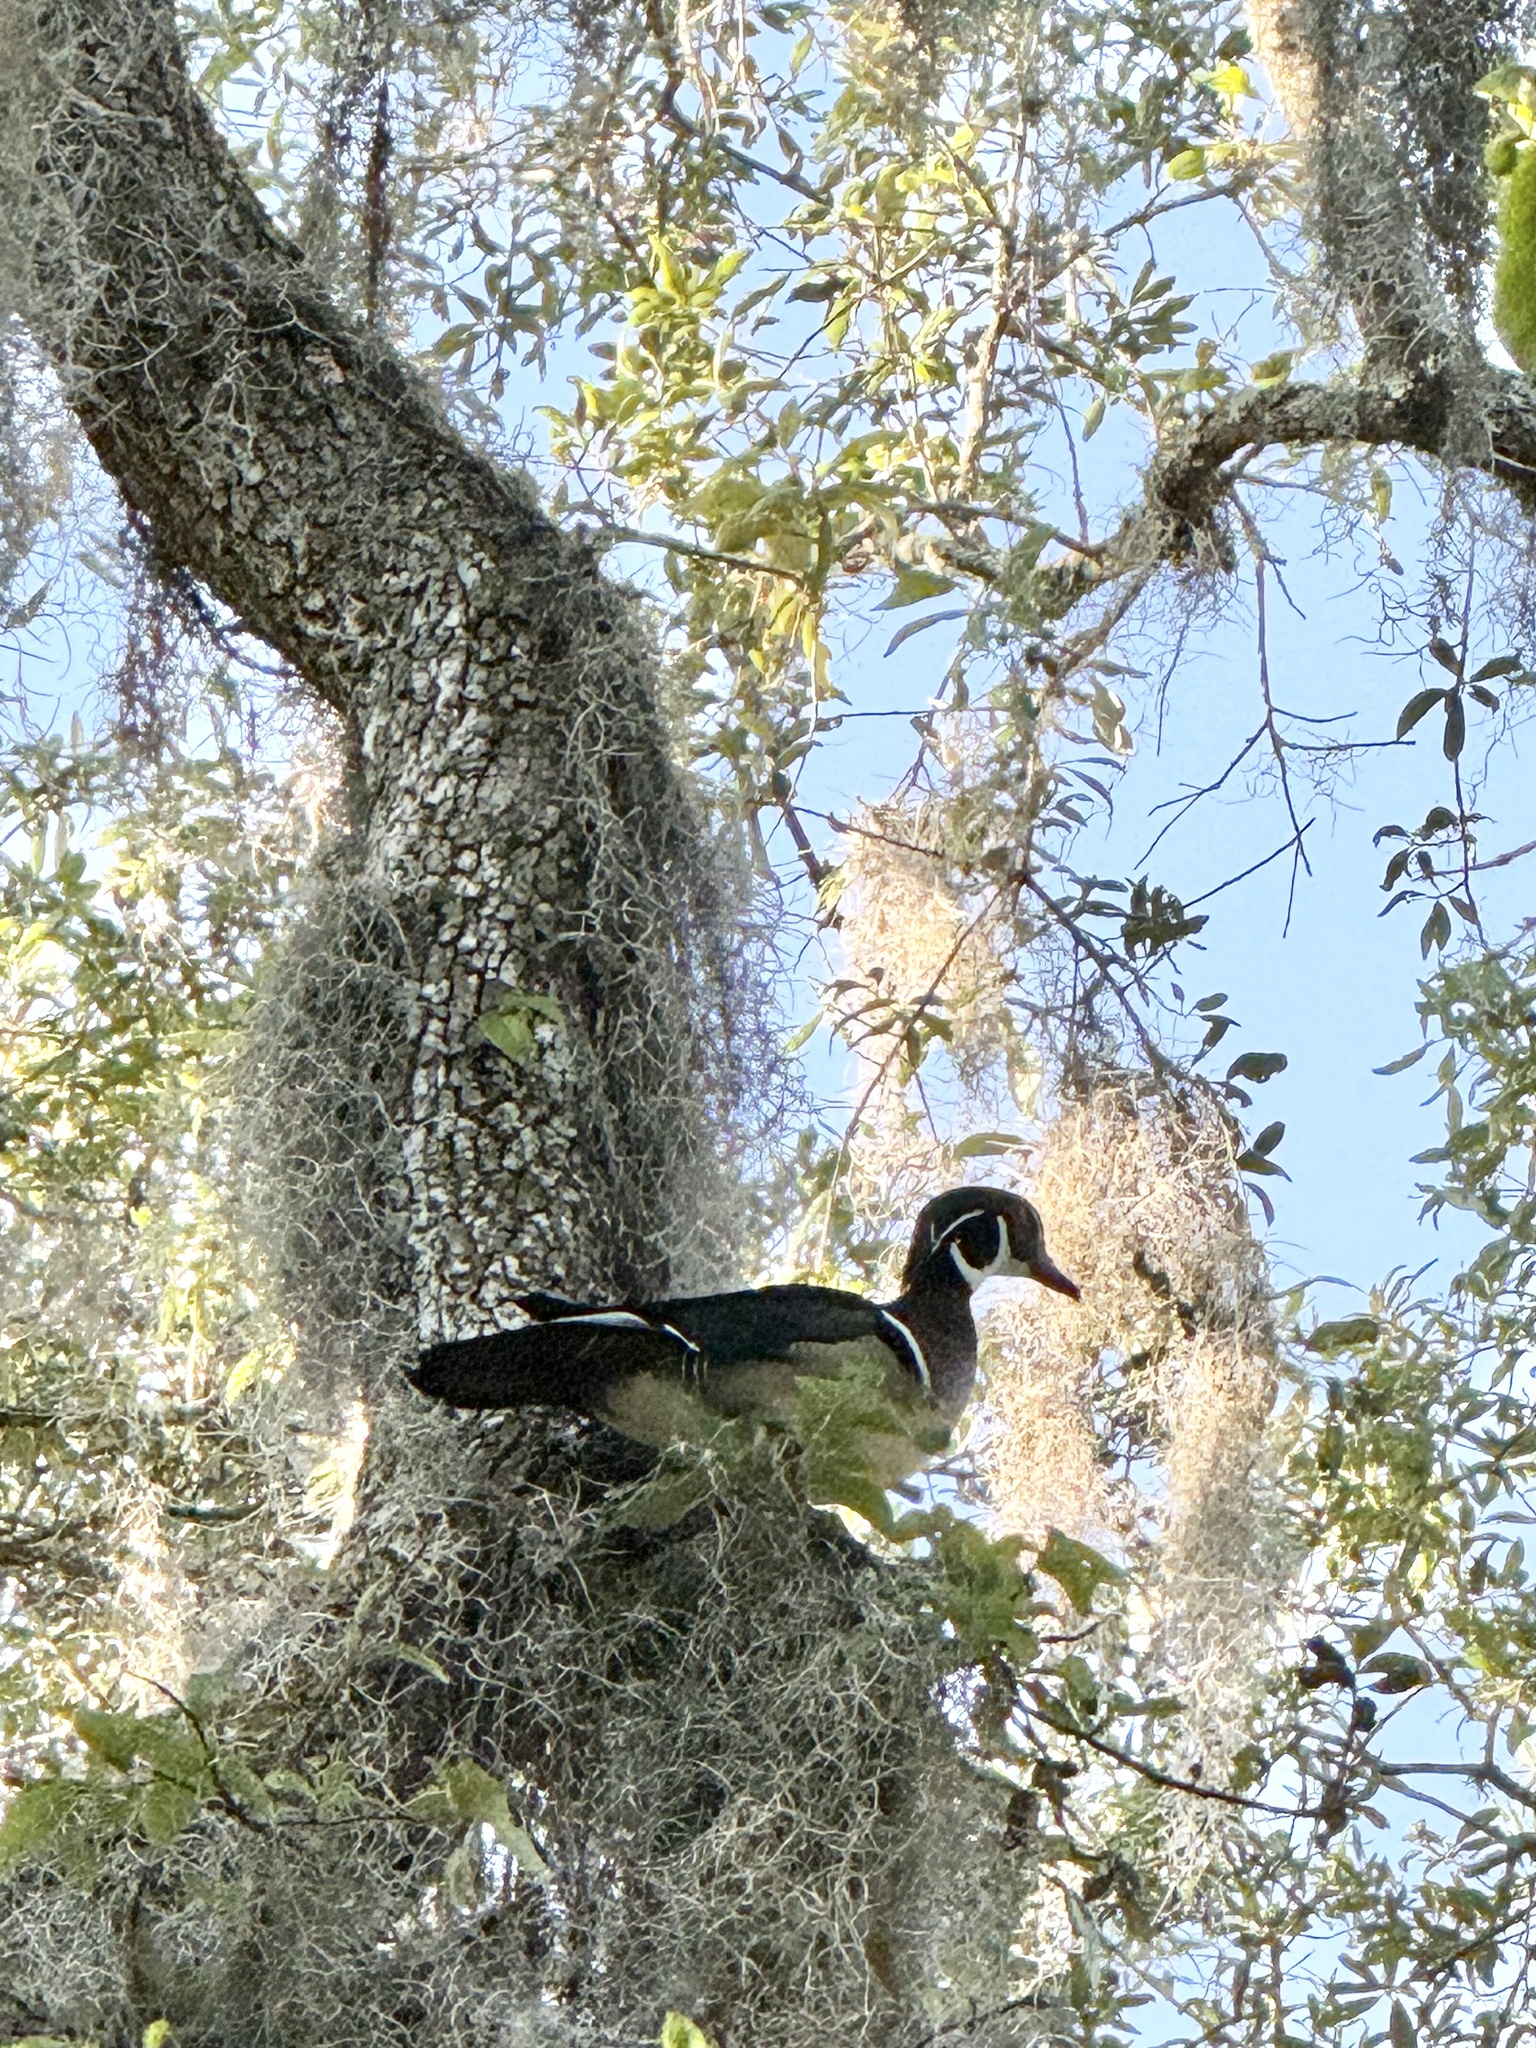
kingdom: Animalia
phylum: Chordata
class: Aves
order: Anseriformes
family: Anatidae
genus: Aix
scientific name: Aix sponsa
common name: Wood duck
